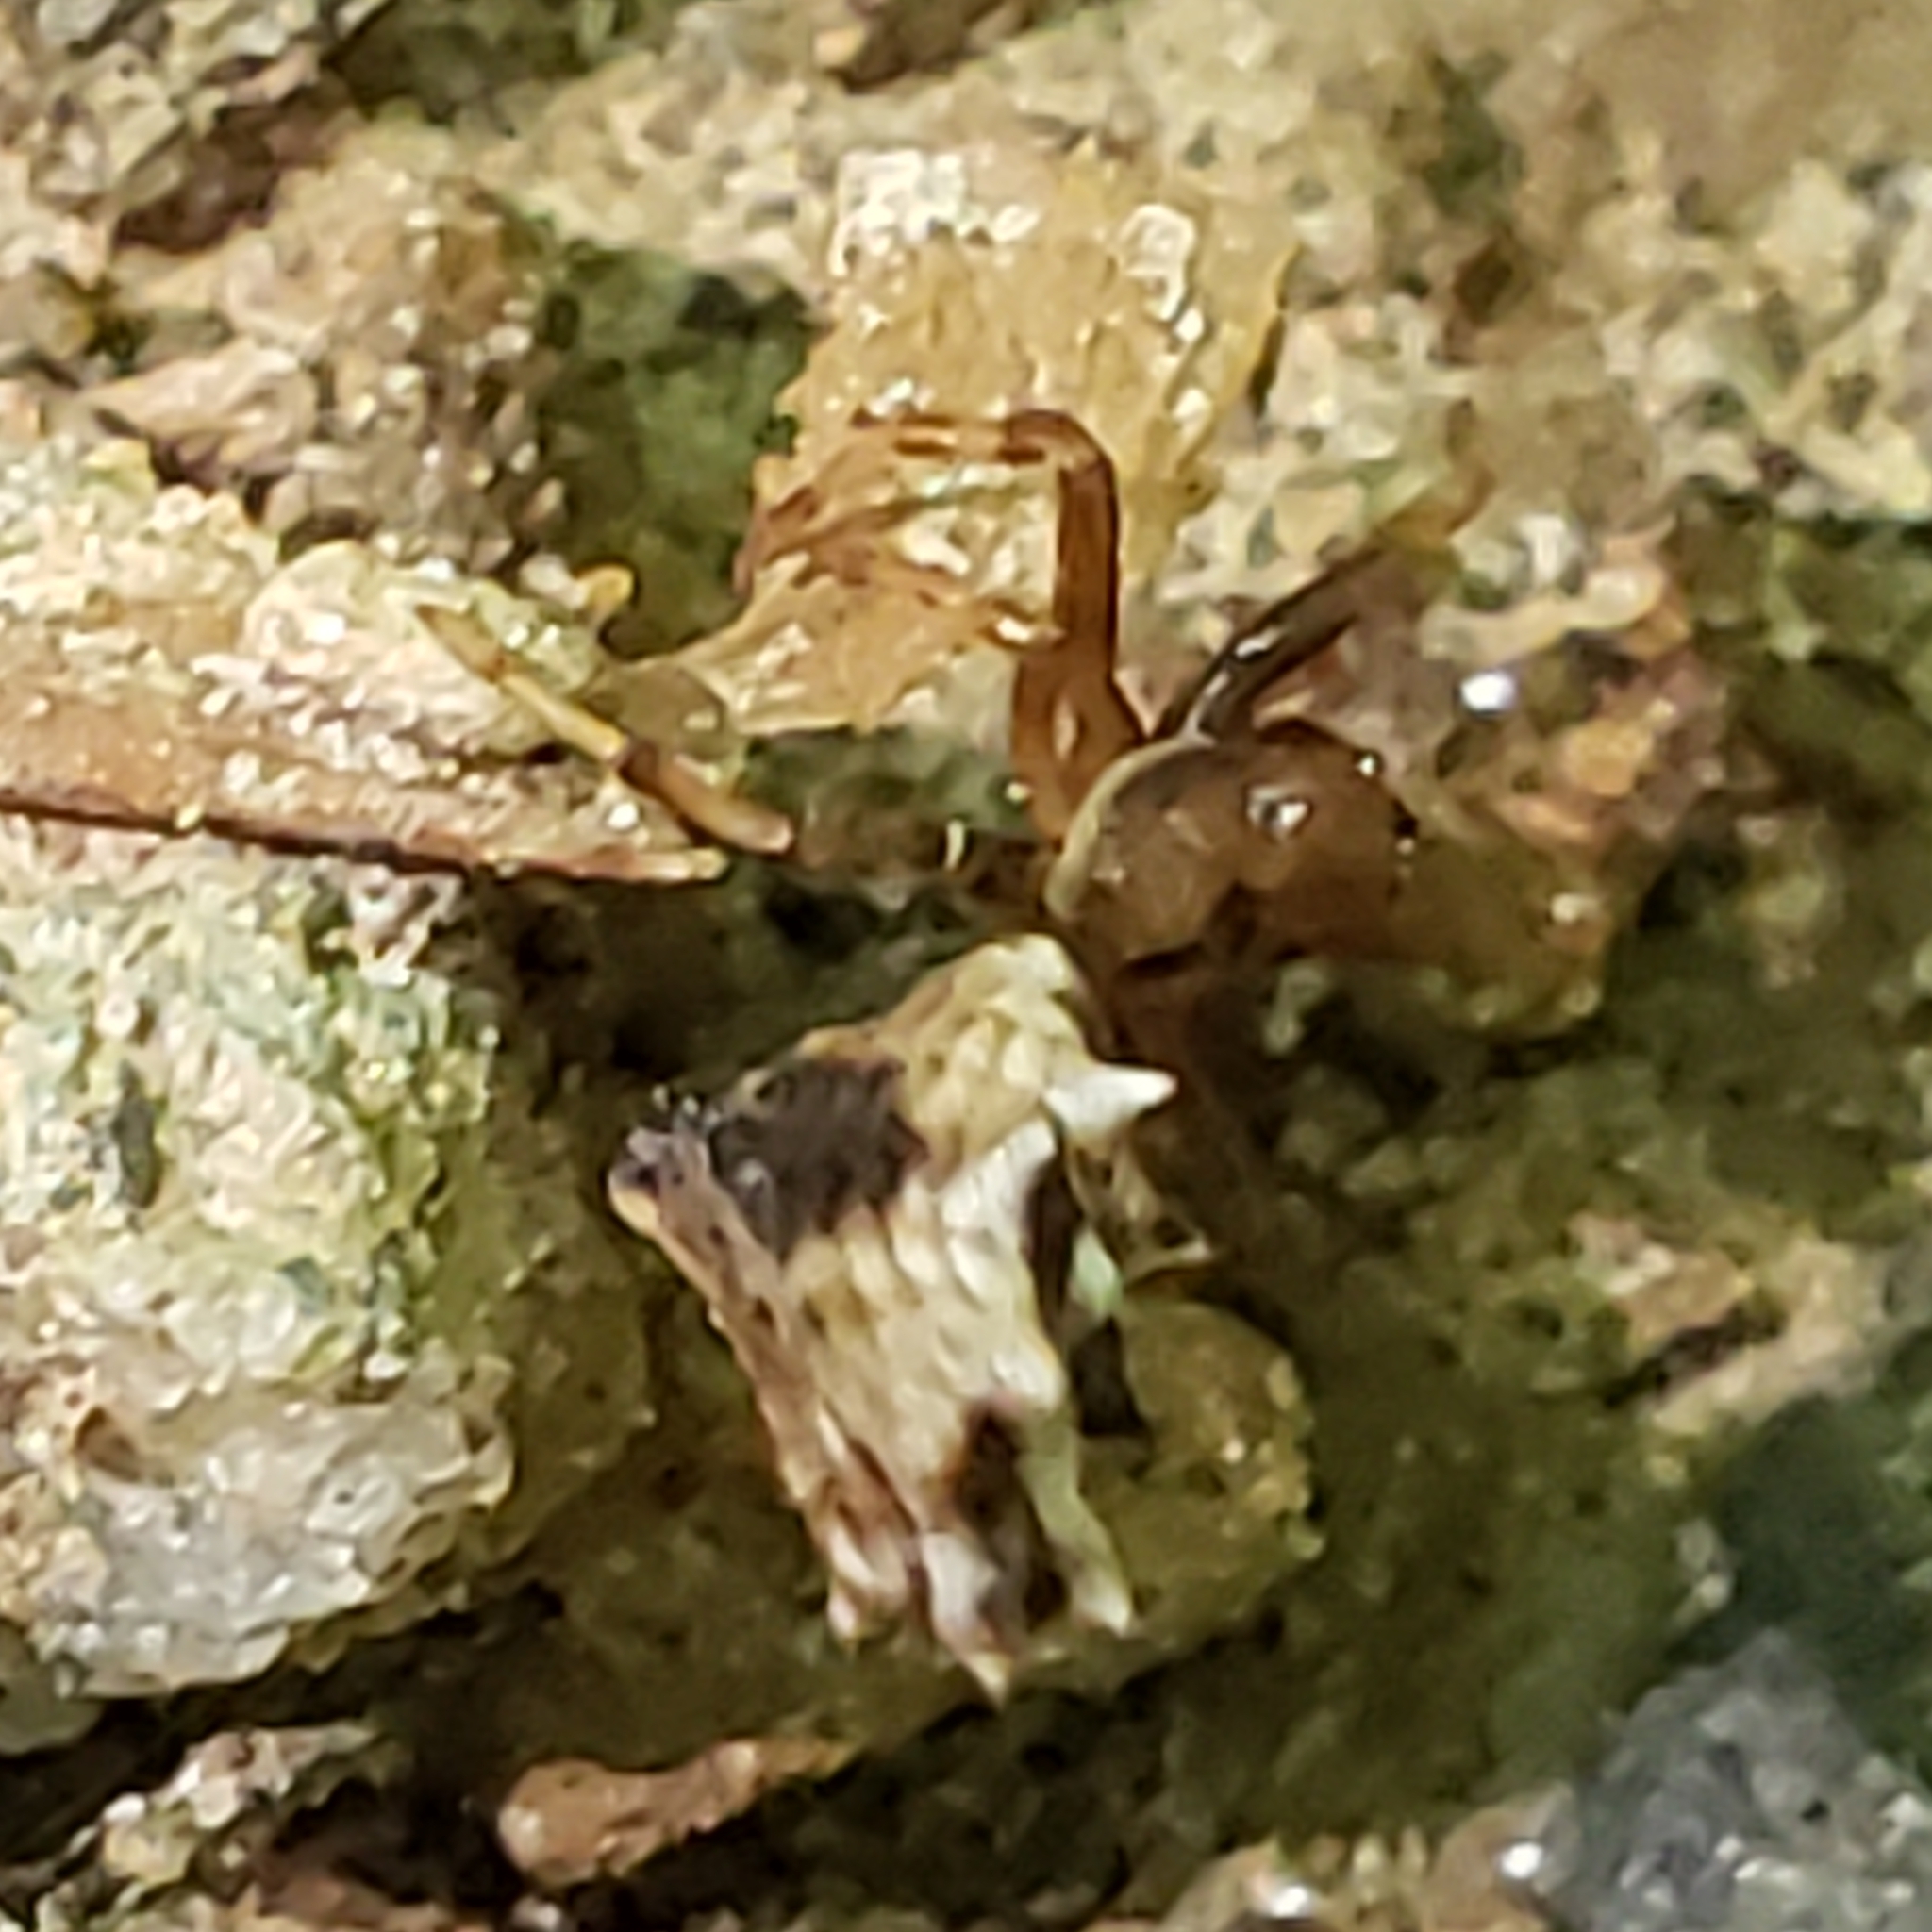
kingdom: Animalia
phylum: Arthropoda
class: Arachnida
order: Araneae
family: Araneidae
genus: Micrathena
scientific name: Micrathena gracilis
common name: Orb weavers
